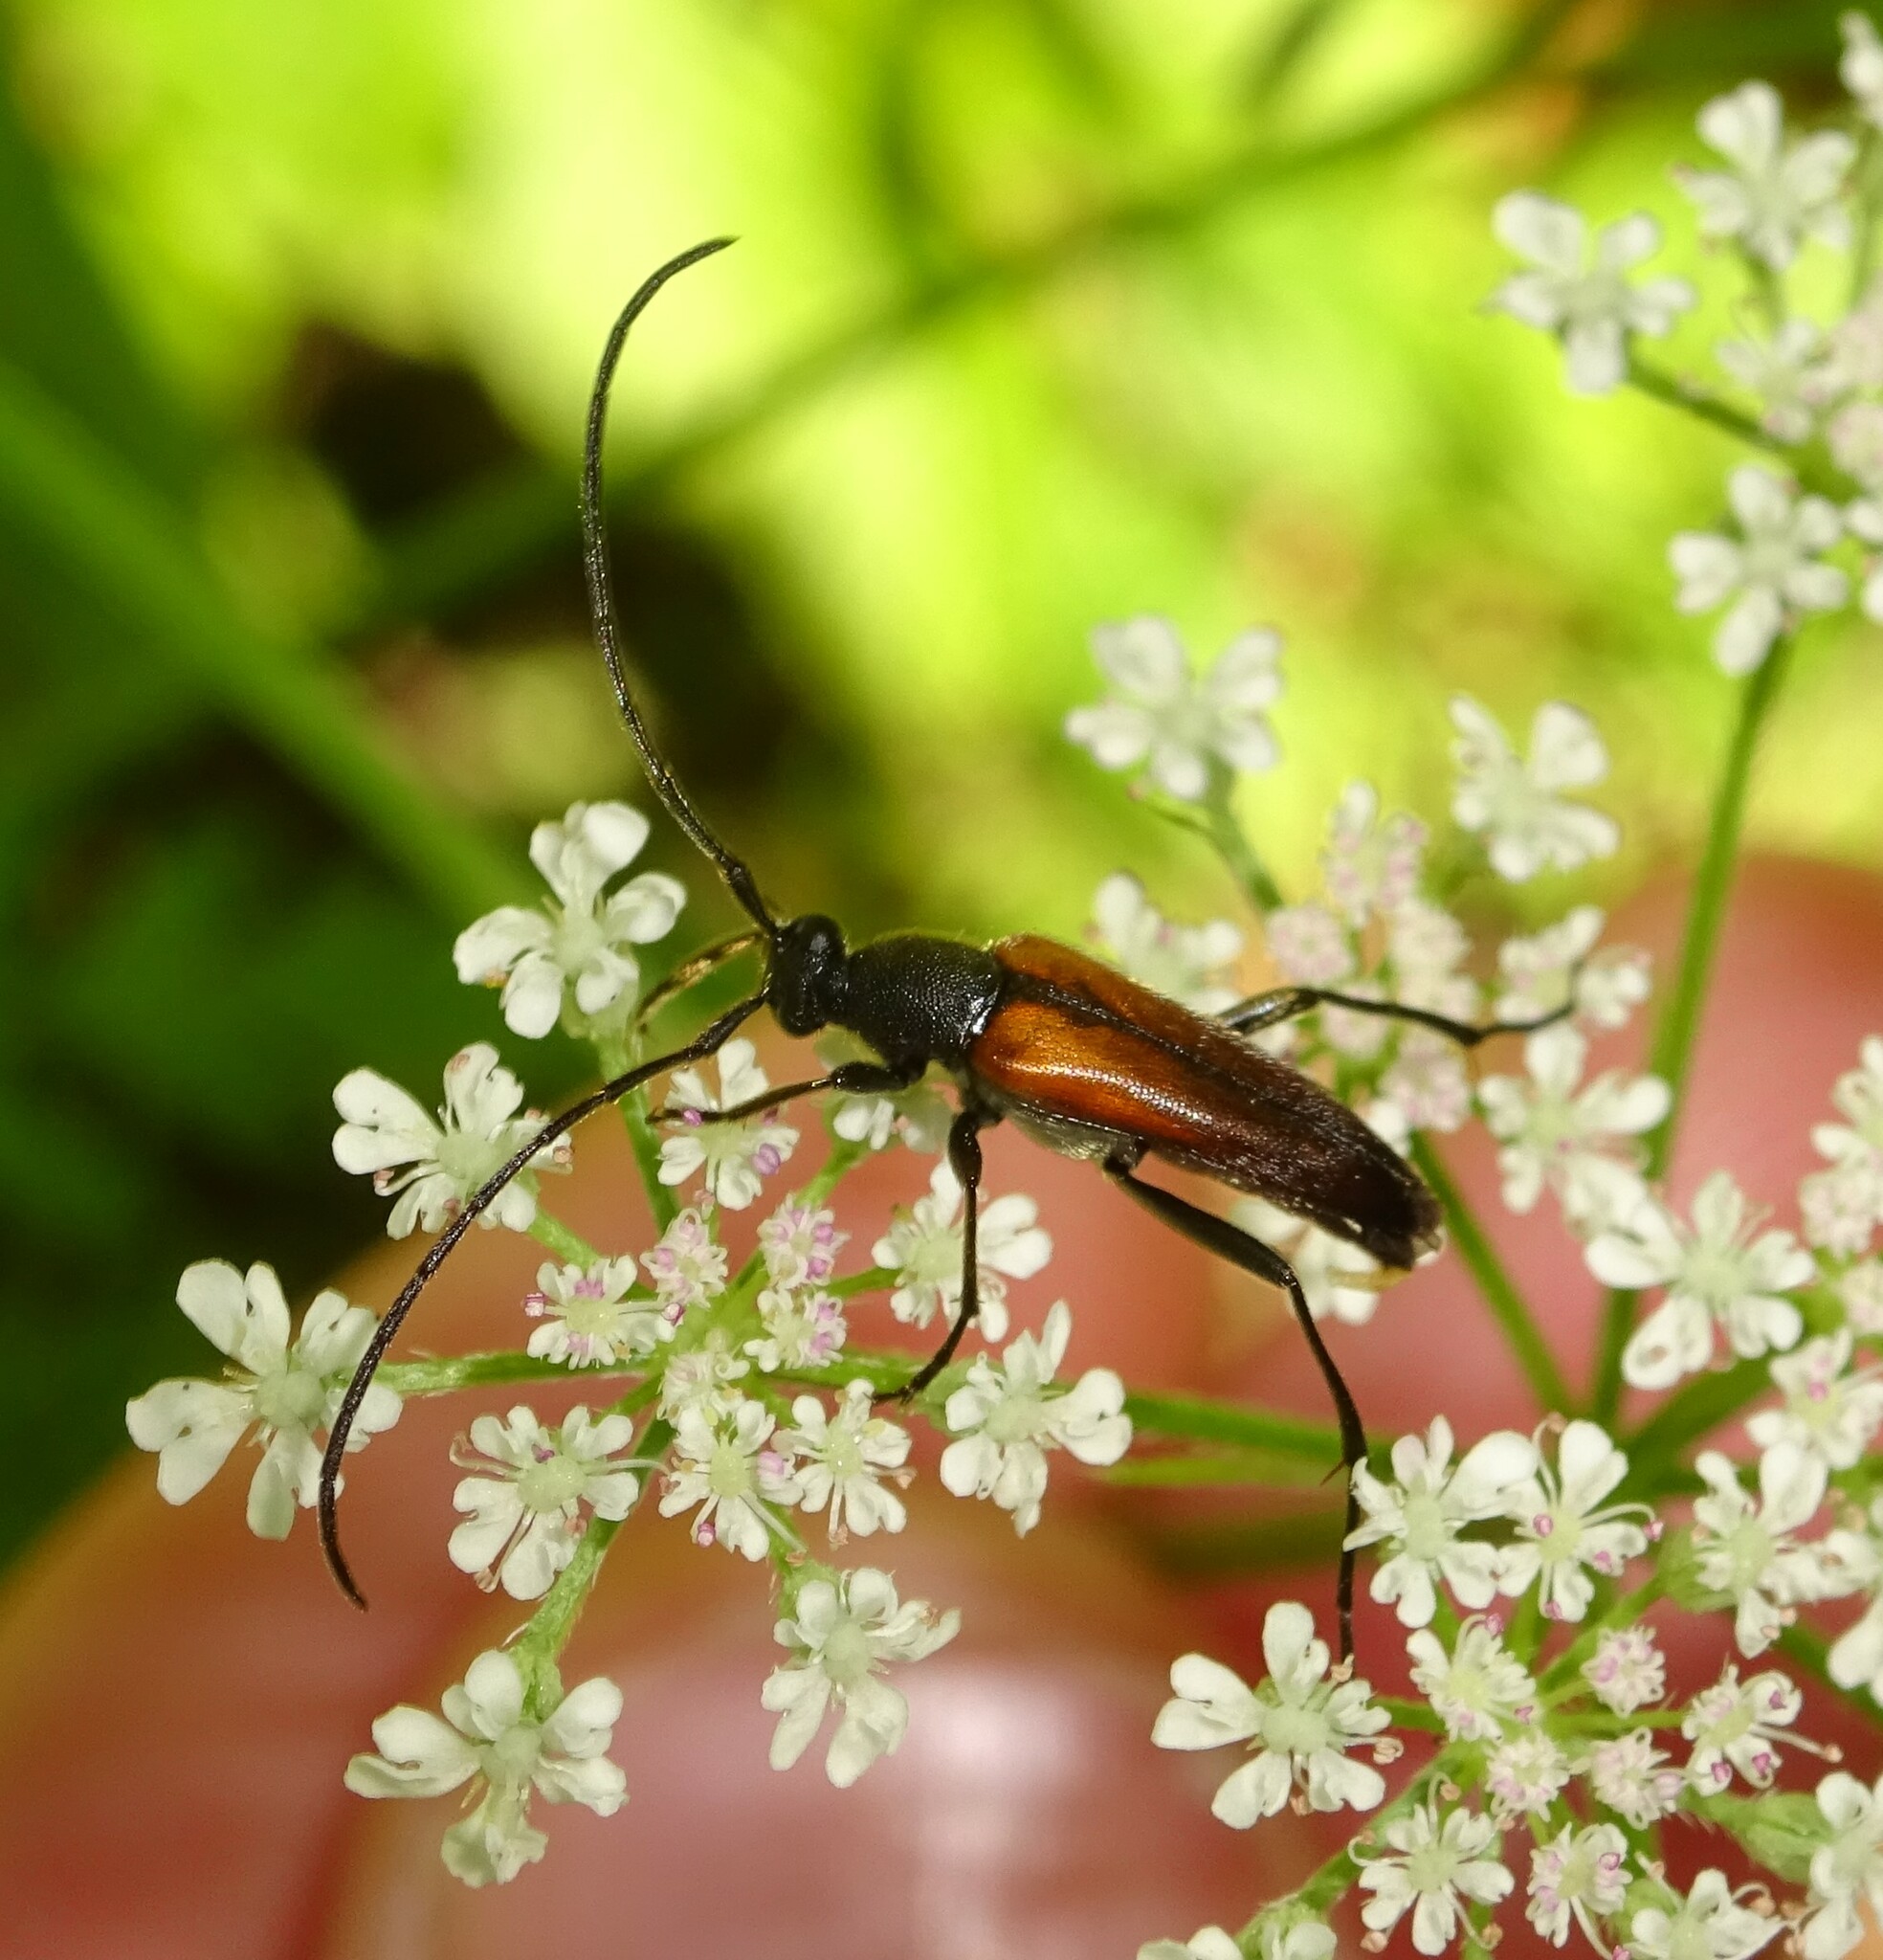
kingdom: Animalia
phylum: Arthropoda
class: Insecta
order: Coleoptera
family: Cerambycidae
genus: Stenurella
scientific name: Stenurella melanura
